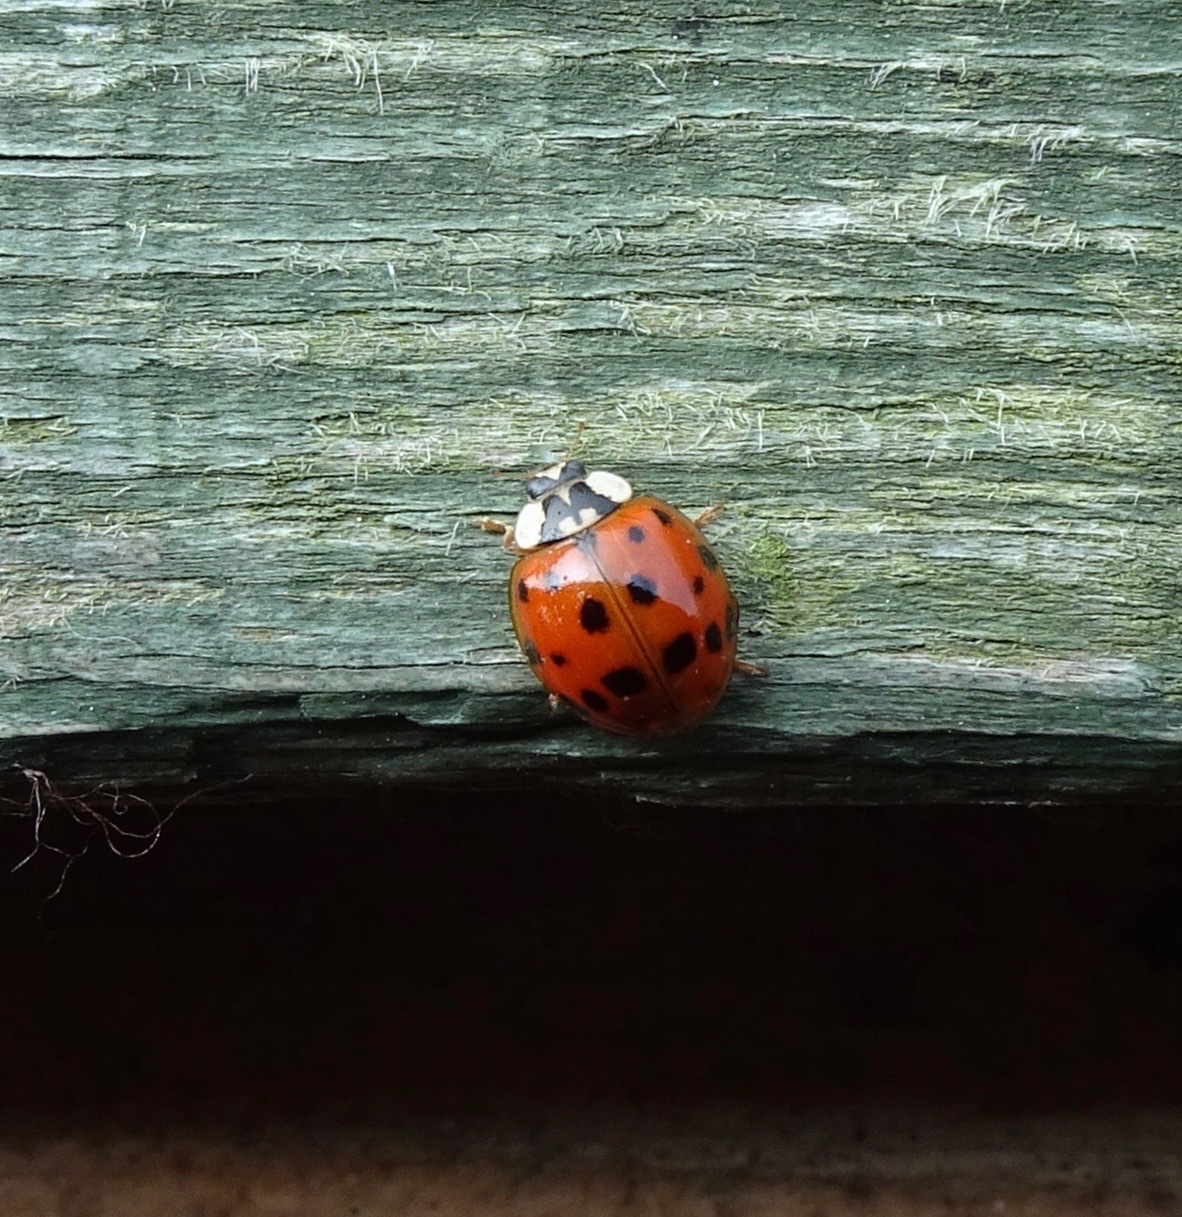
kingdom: Animalia
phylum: Arthropoda
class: Insecta
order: Coleoptera
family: Coccinellidae
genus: Harmonia
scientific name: Harmonia axyridis
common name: Harlequin ladybird
